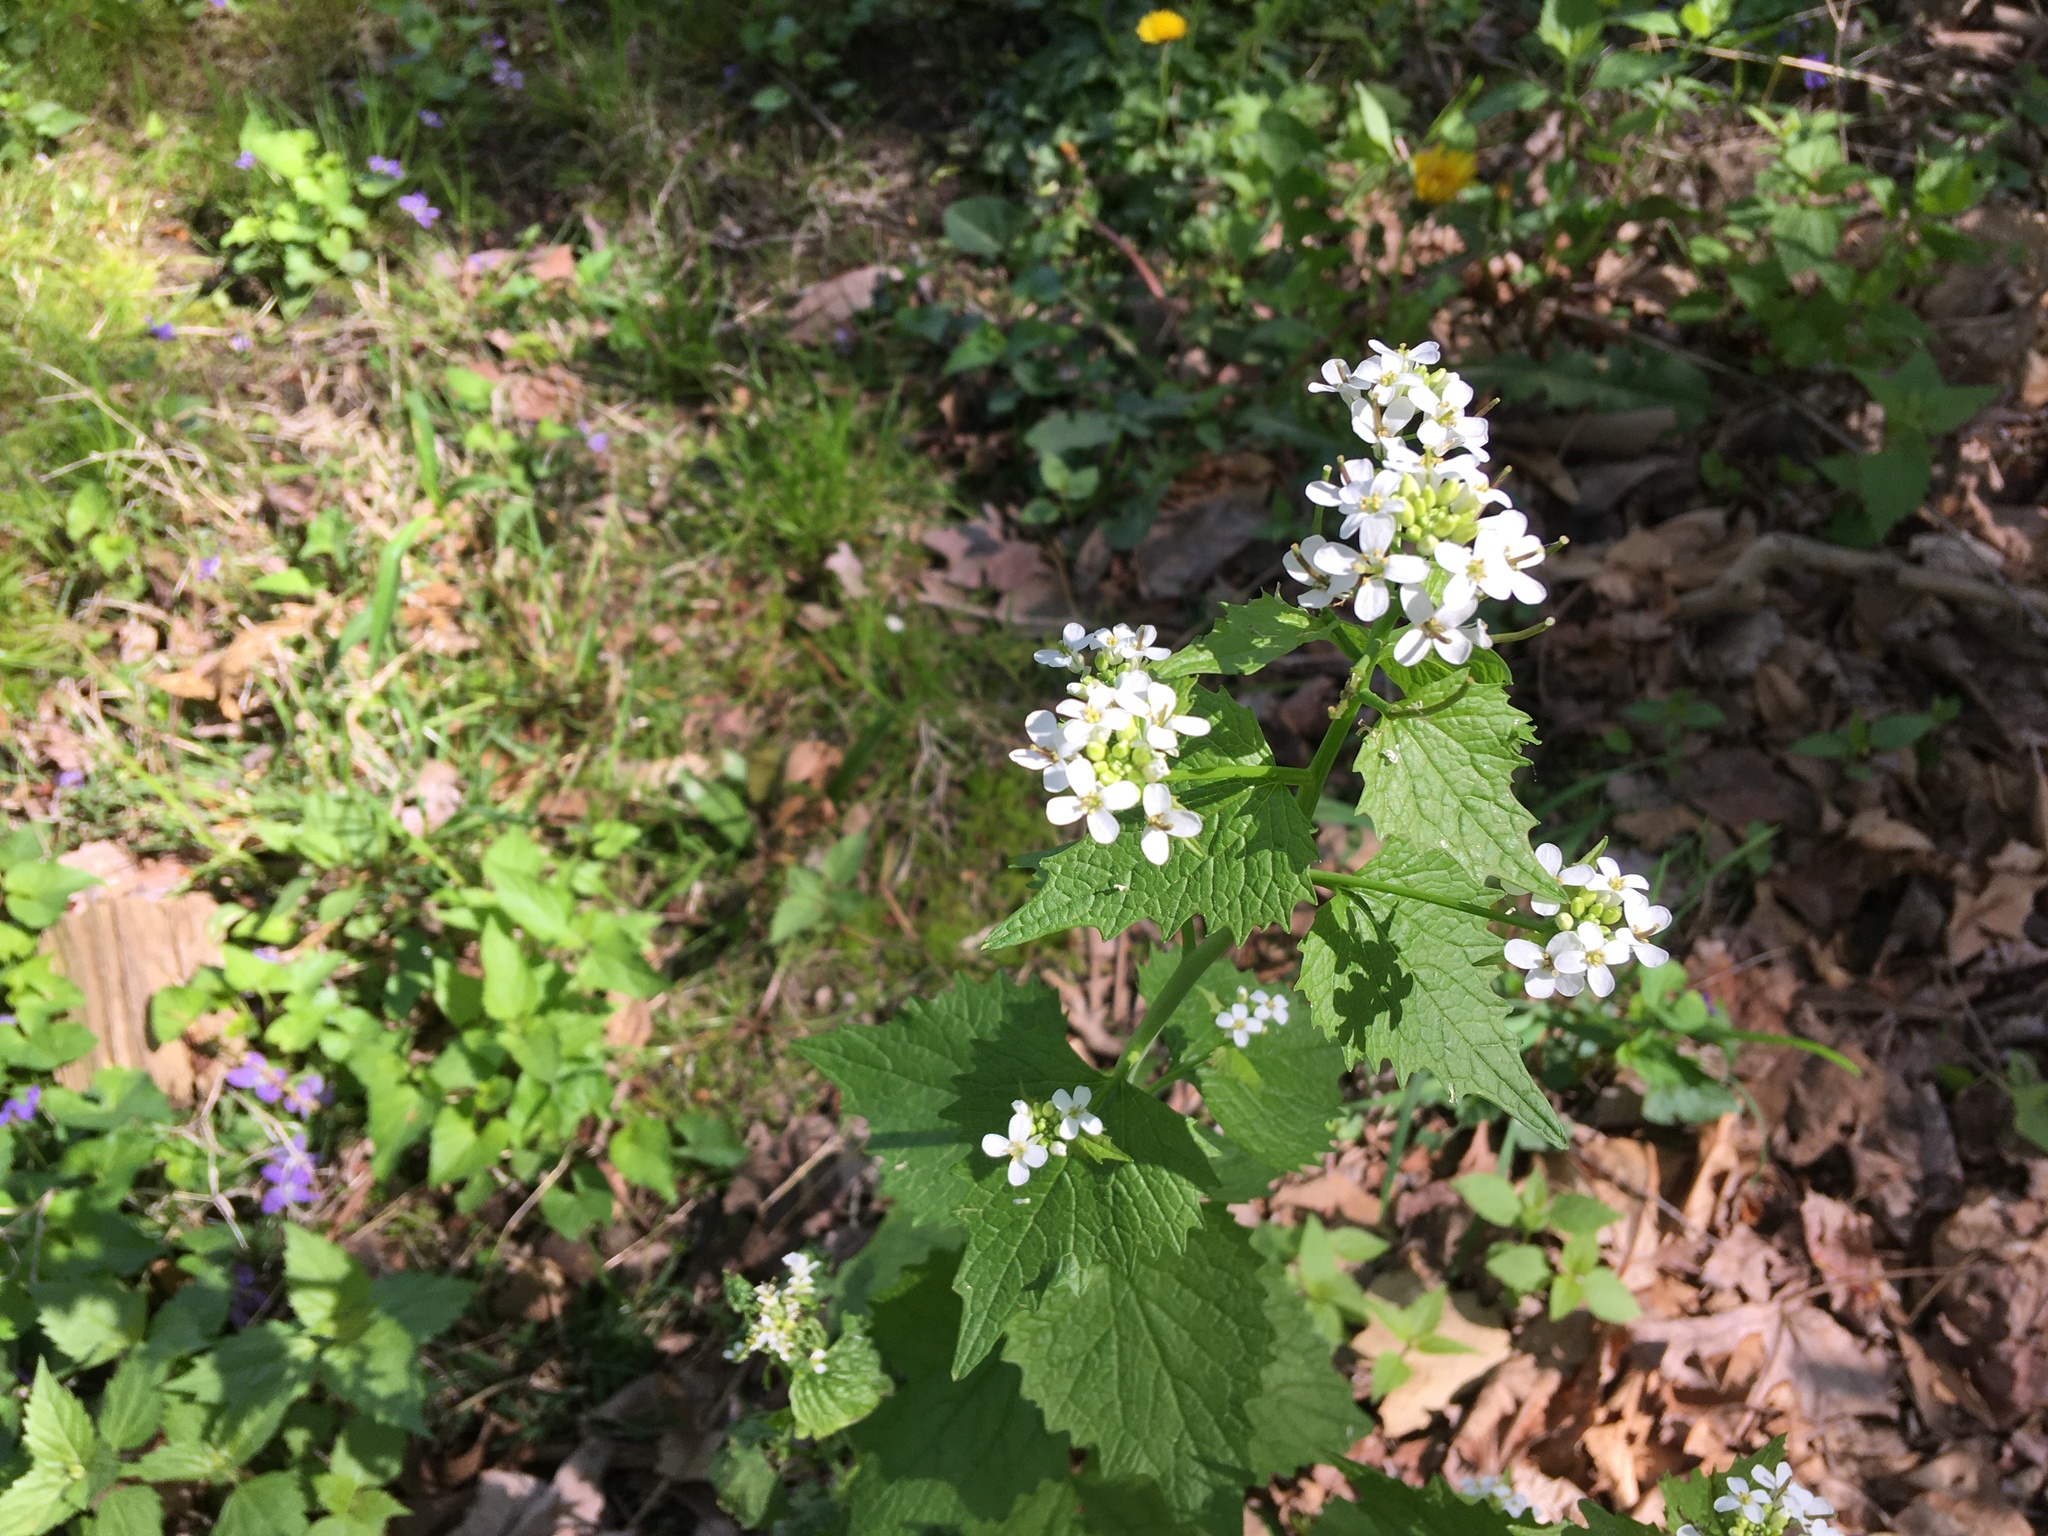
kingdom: Plantae
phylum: Tracheophyta
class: Magnoliopsida
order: Brassicales
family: Brassicaceae
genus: Alliaria
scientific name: Alliaria petiolata
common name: Garlic mustard
